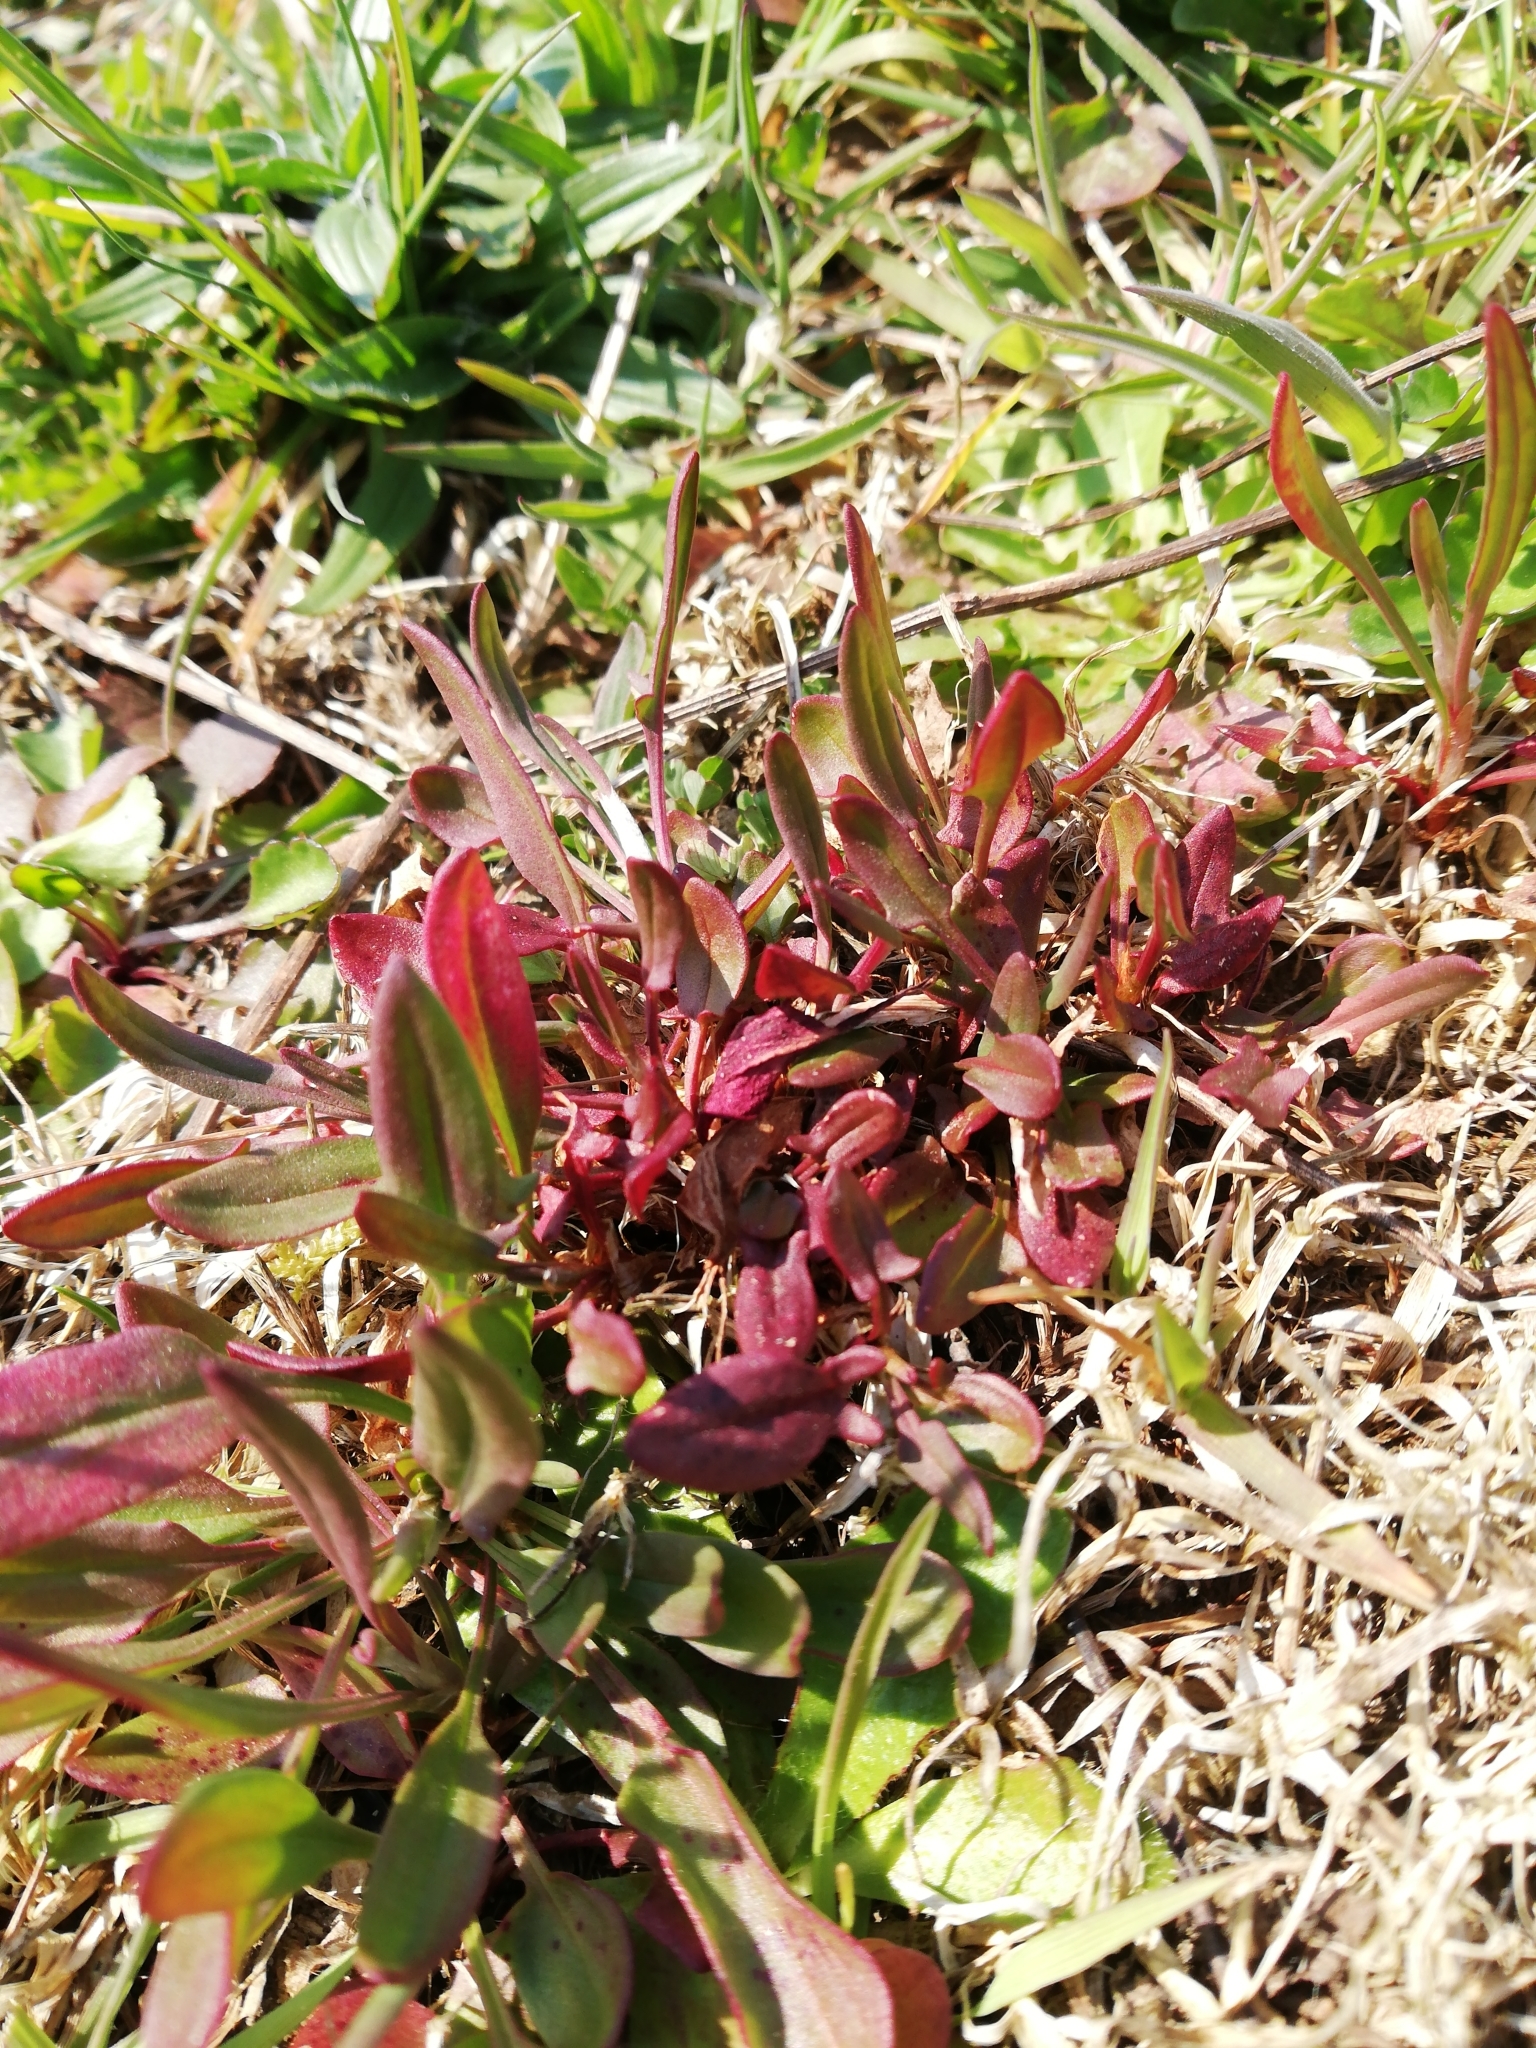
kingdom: Plantae
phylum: Tracheophyta
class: Magnoliopsida
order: Caryophyllales
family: Polygonaceae
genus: Rumex
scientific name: Rumex acetosella
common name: Common sheep sorrel
